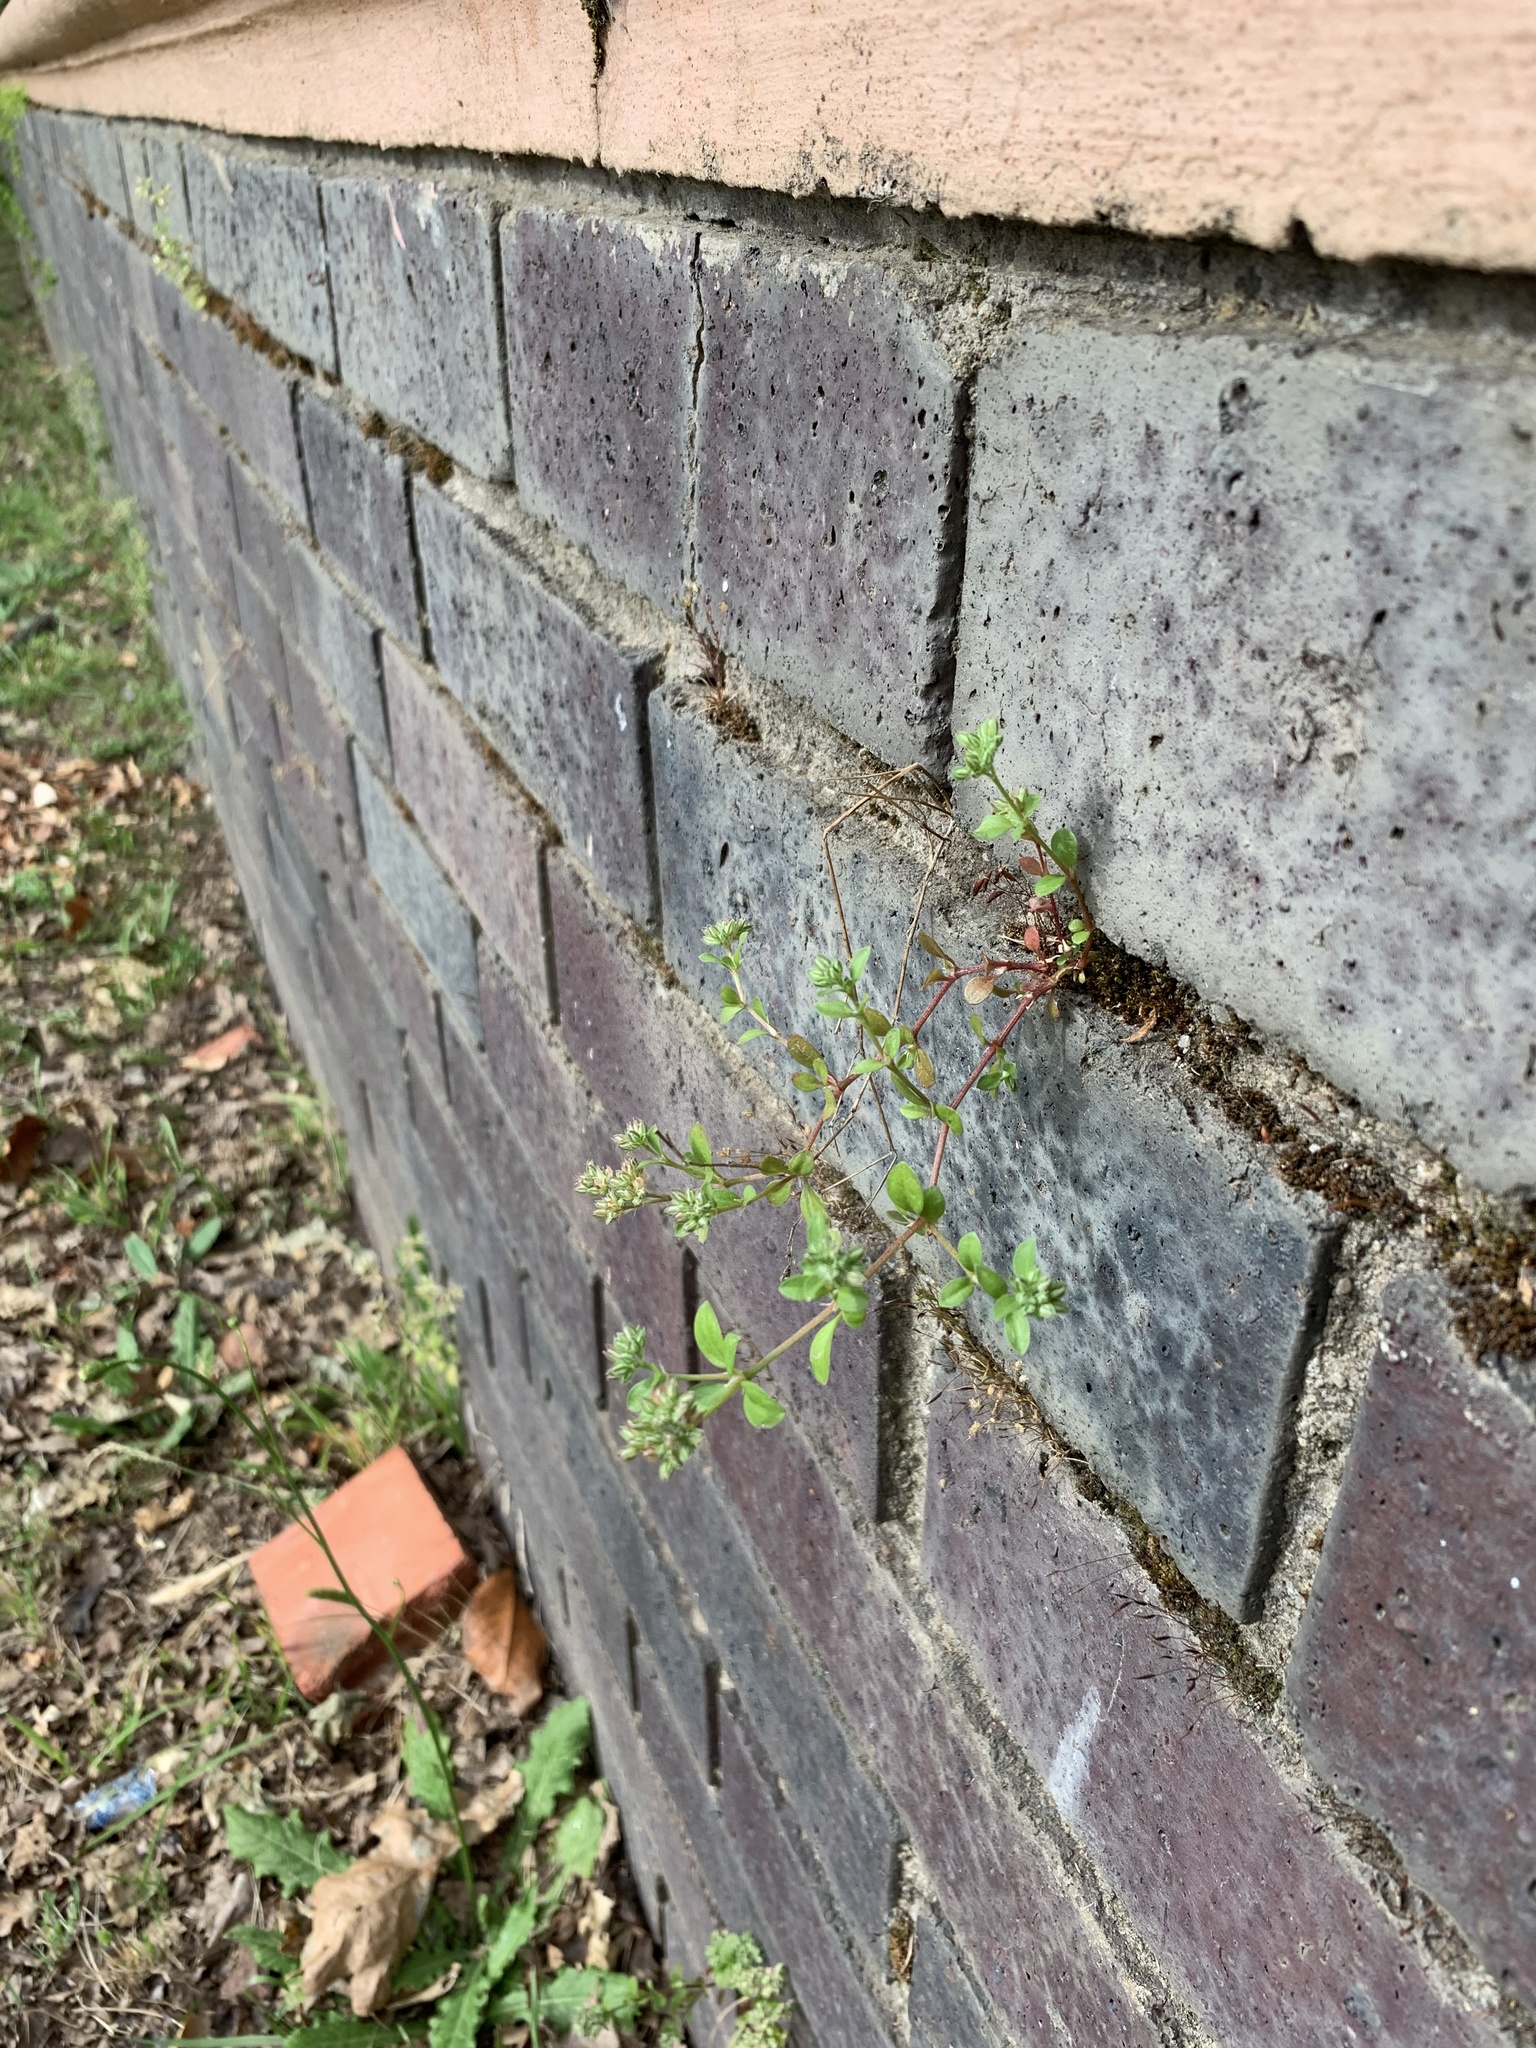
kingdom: Plantae
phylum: Tracheophyta
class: Magnoliopsida
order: Caryophyllales
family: Caryophyllaceae
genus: Polycarpon
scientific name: Polycarpon tetraphyllum
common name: Four-leaved all-seed
